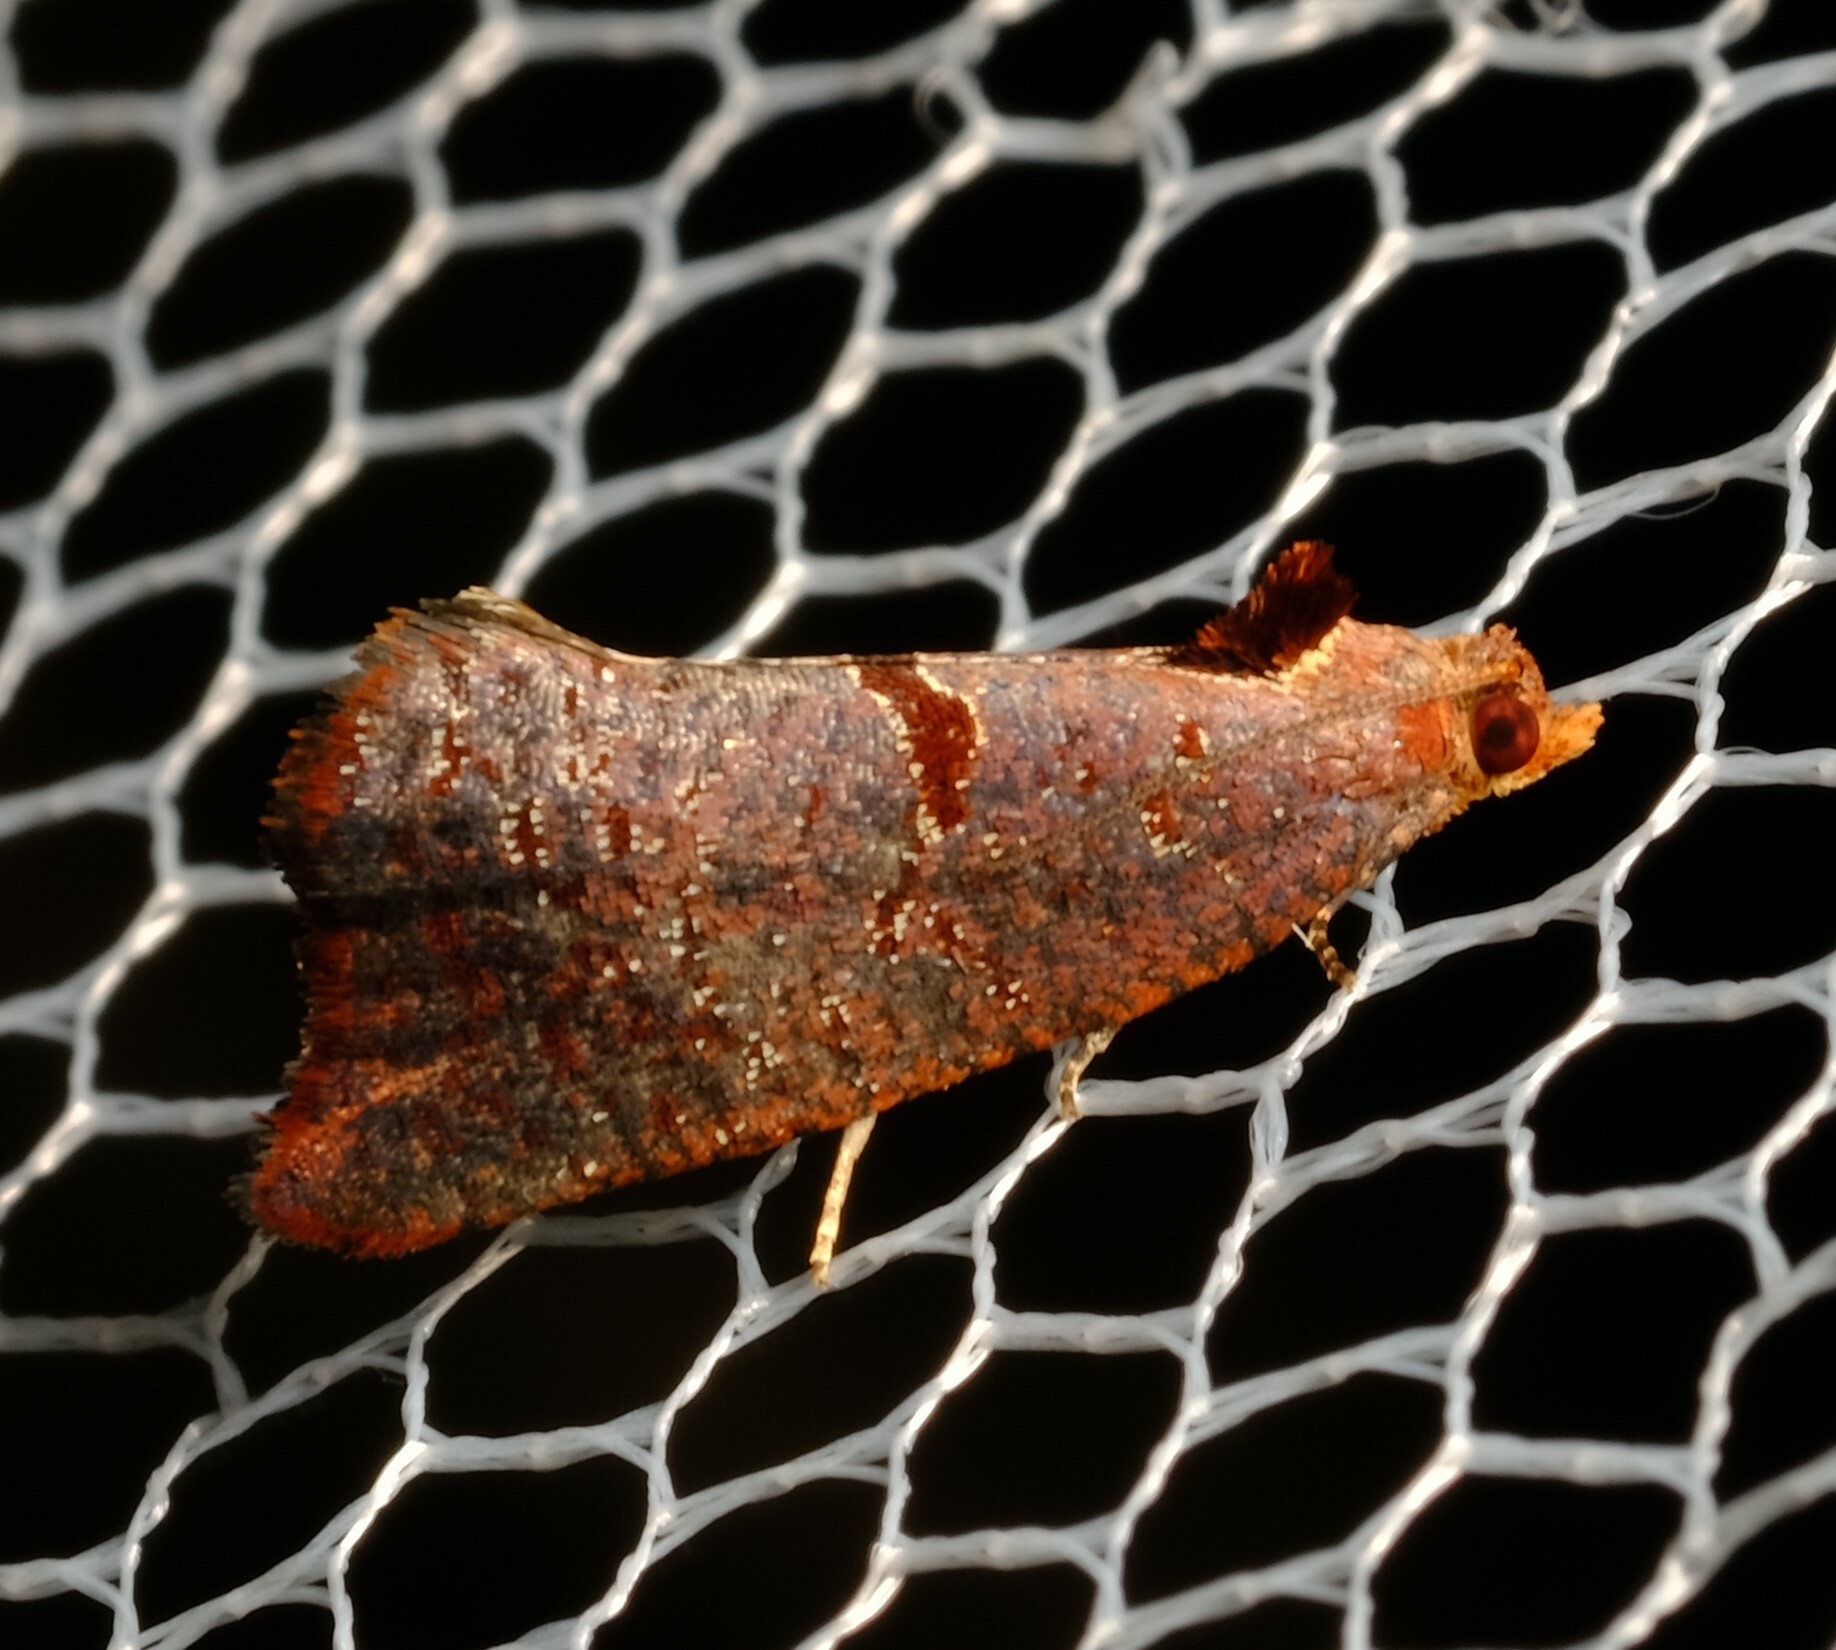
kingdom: Animalia
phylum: Arthropoda
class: Insecta
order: Lepidoptera
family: Tortricidae
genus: Glyphidoptera
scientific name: Glyphidoptera insignana
